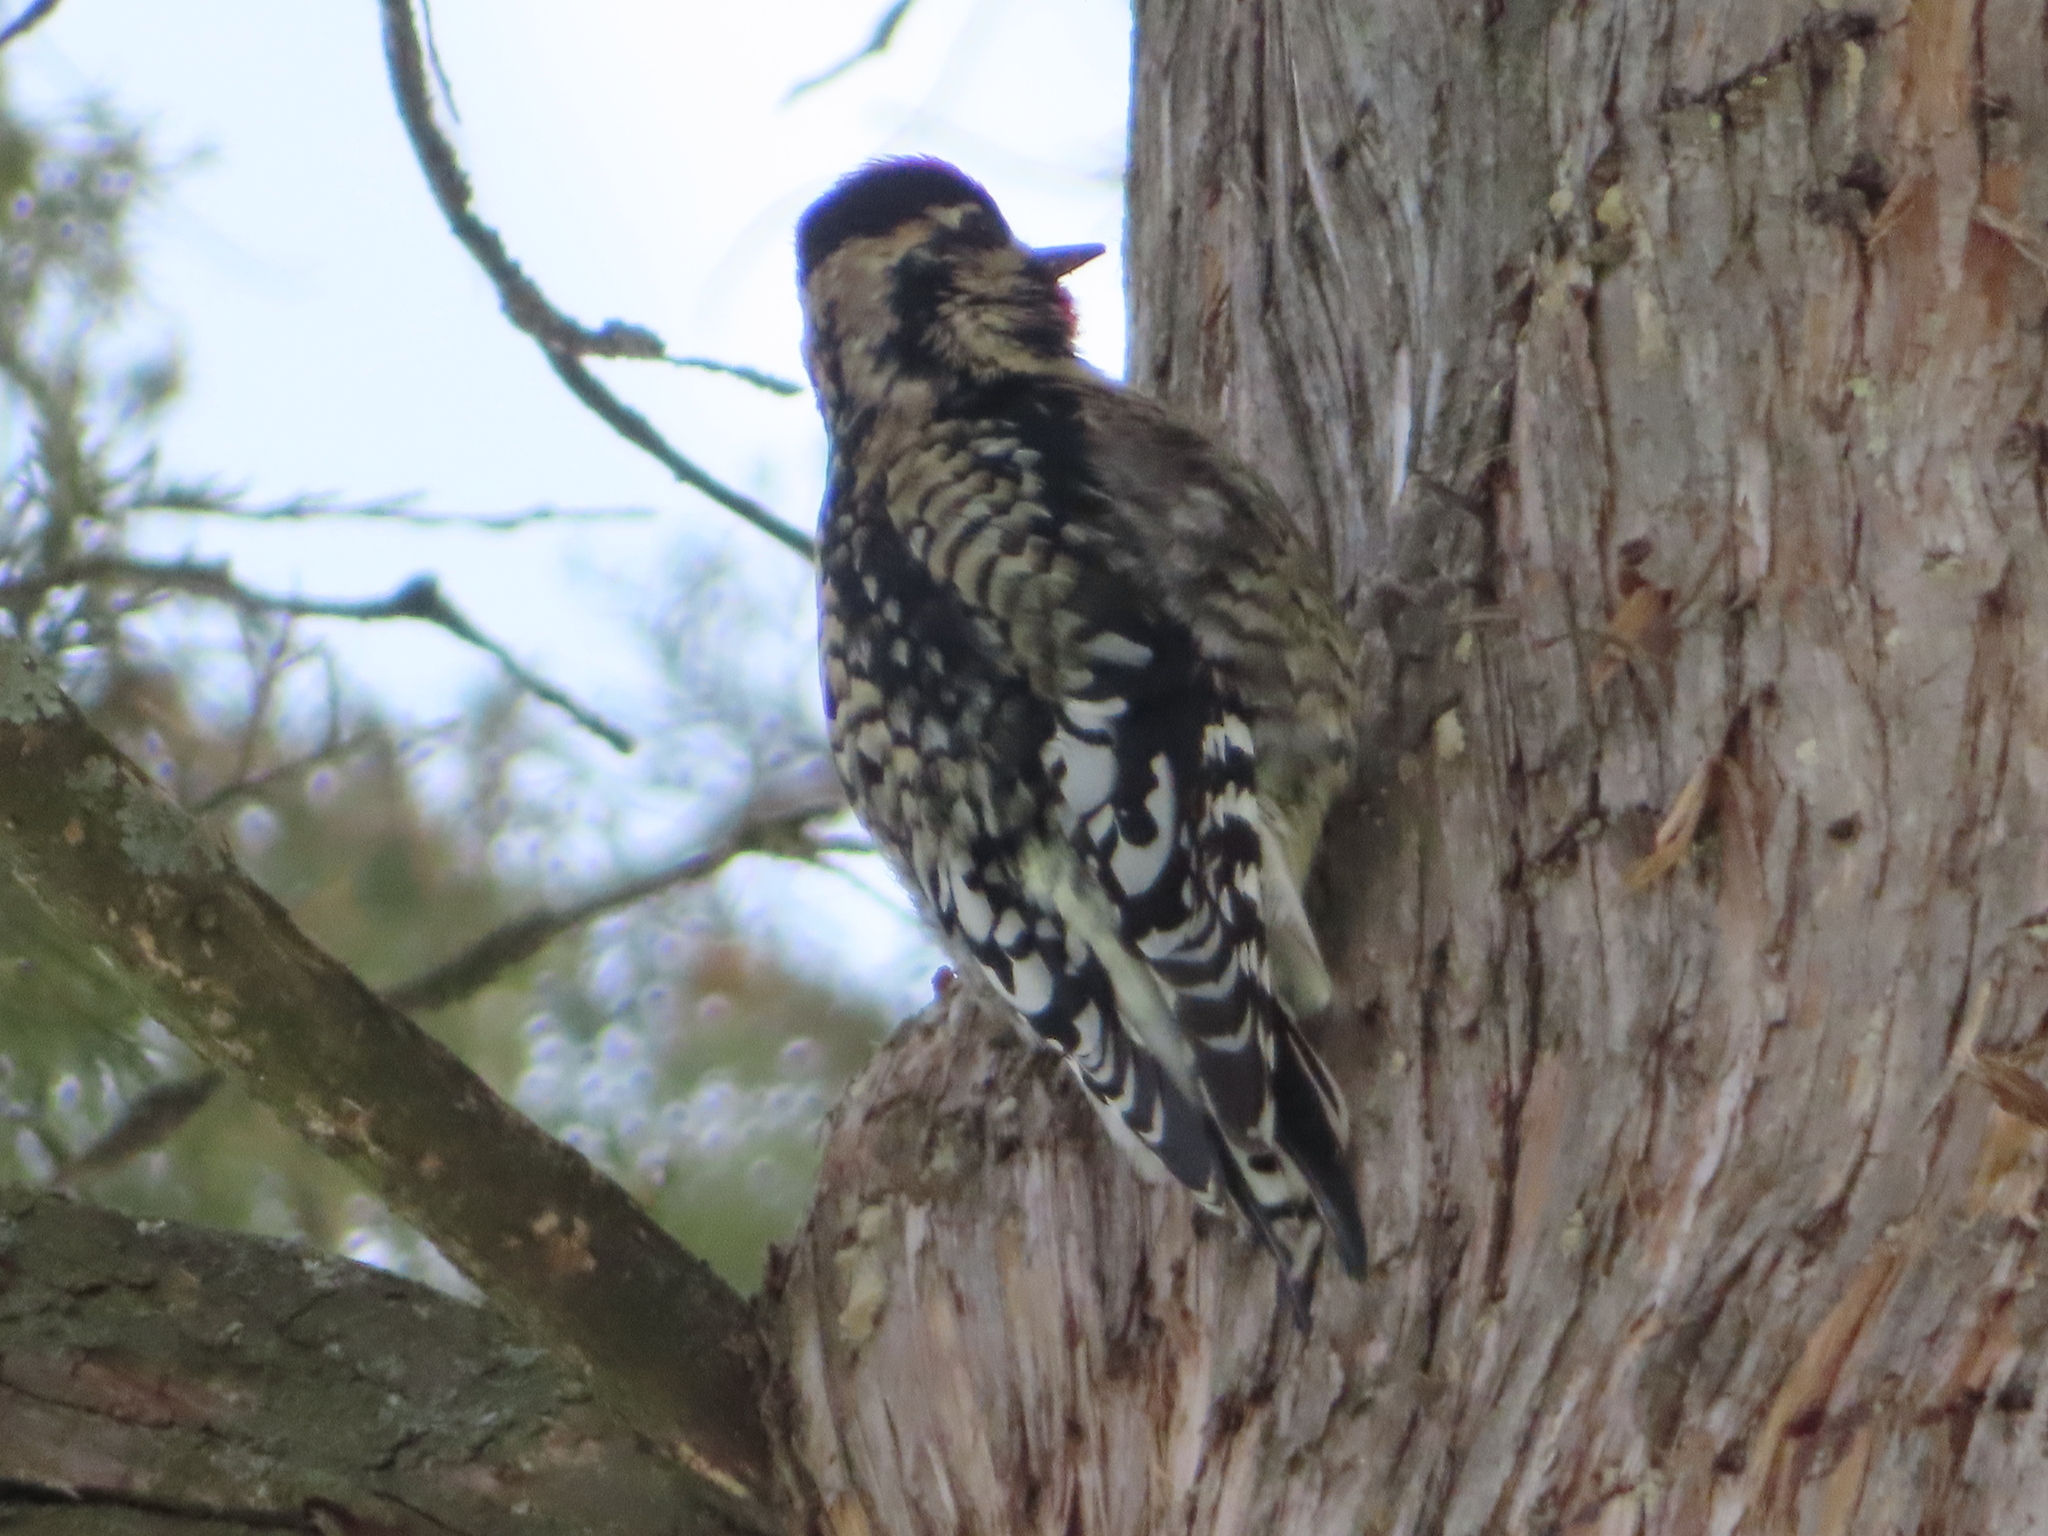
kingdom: Animalia
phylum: Chordata
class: Aves
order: Piciformes
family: Picidae
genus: Sphyrapicus
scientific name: Sphyrapicus varius
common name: Yellow-bellied sapsucker
